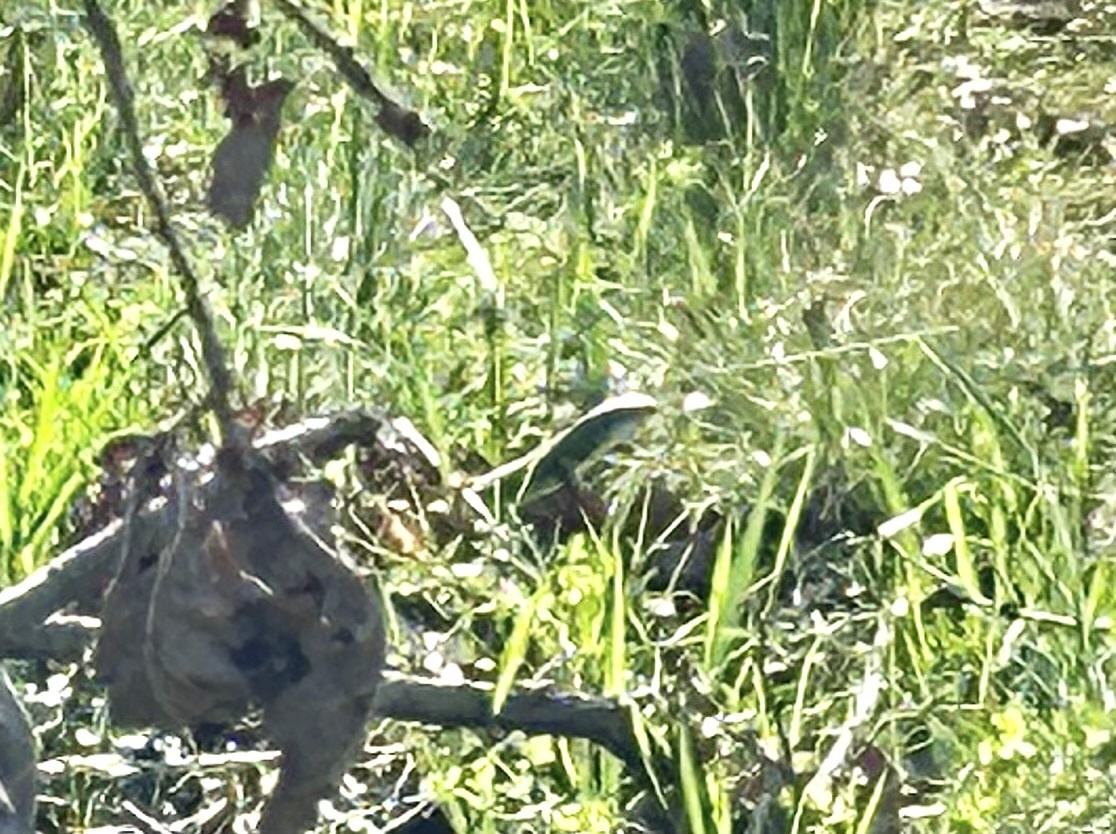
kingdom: Animalia
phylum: Chordata
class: Squamata
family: Lacertidae
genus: Lacerta
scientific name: Lacerta bilineata
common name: Western green lizard
